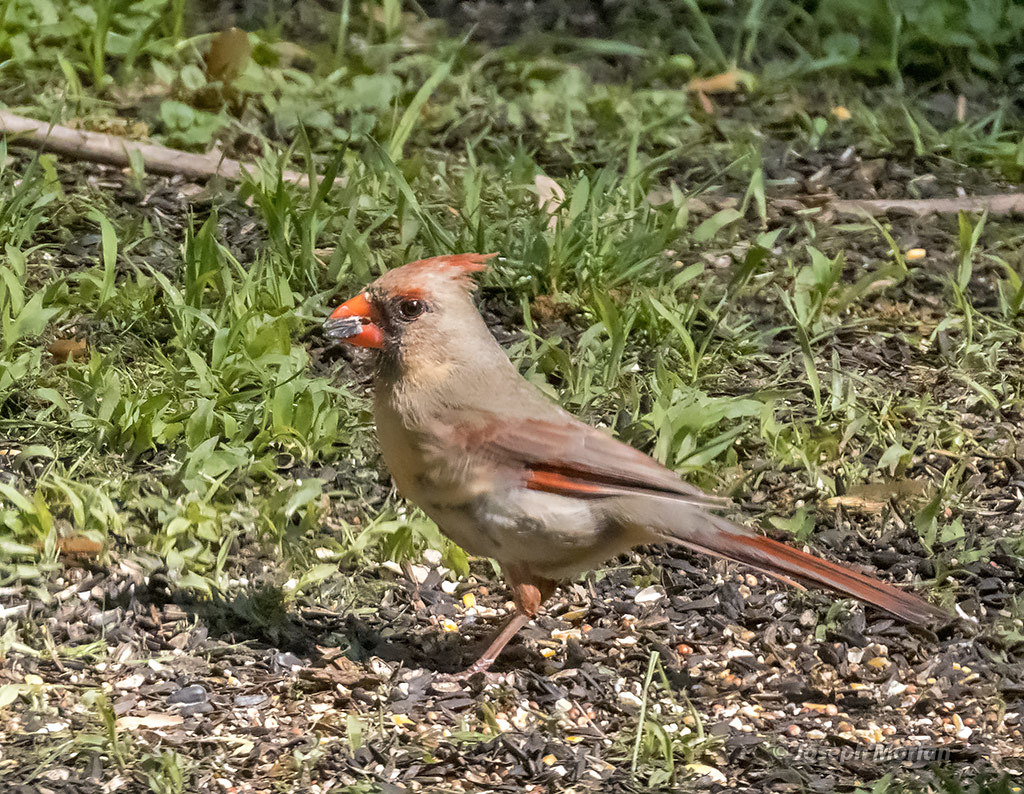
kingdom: Animalia
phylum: Chordata
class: Aves
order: Passeriformes
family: Cardinalidae
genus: Cardinalis
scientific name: Cardinalis cardinalis
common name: Northern cardinal
